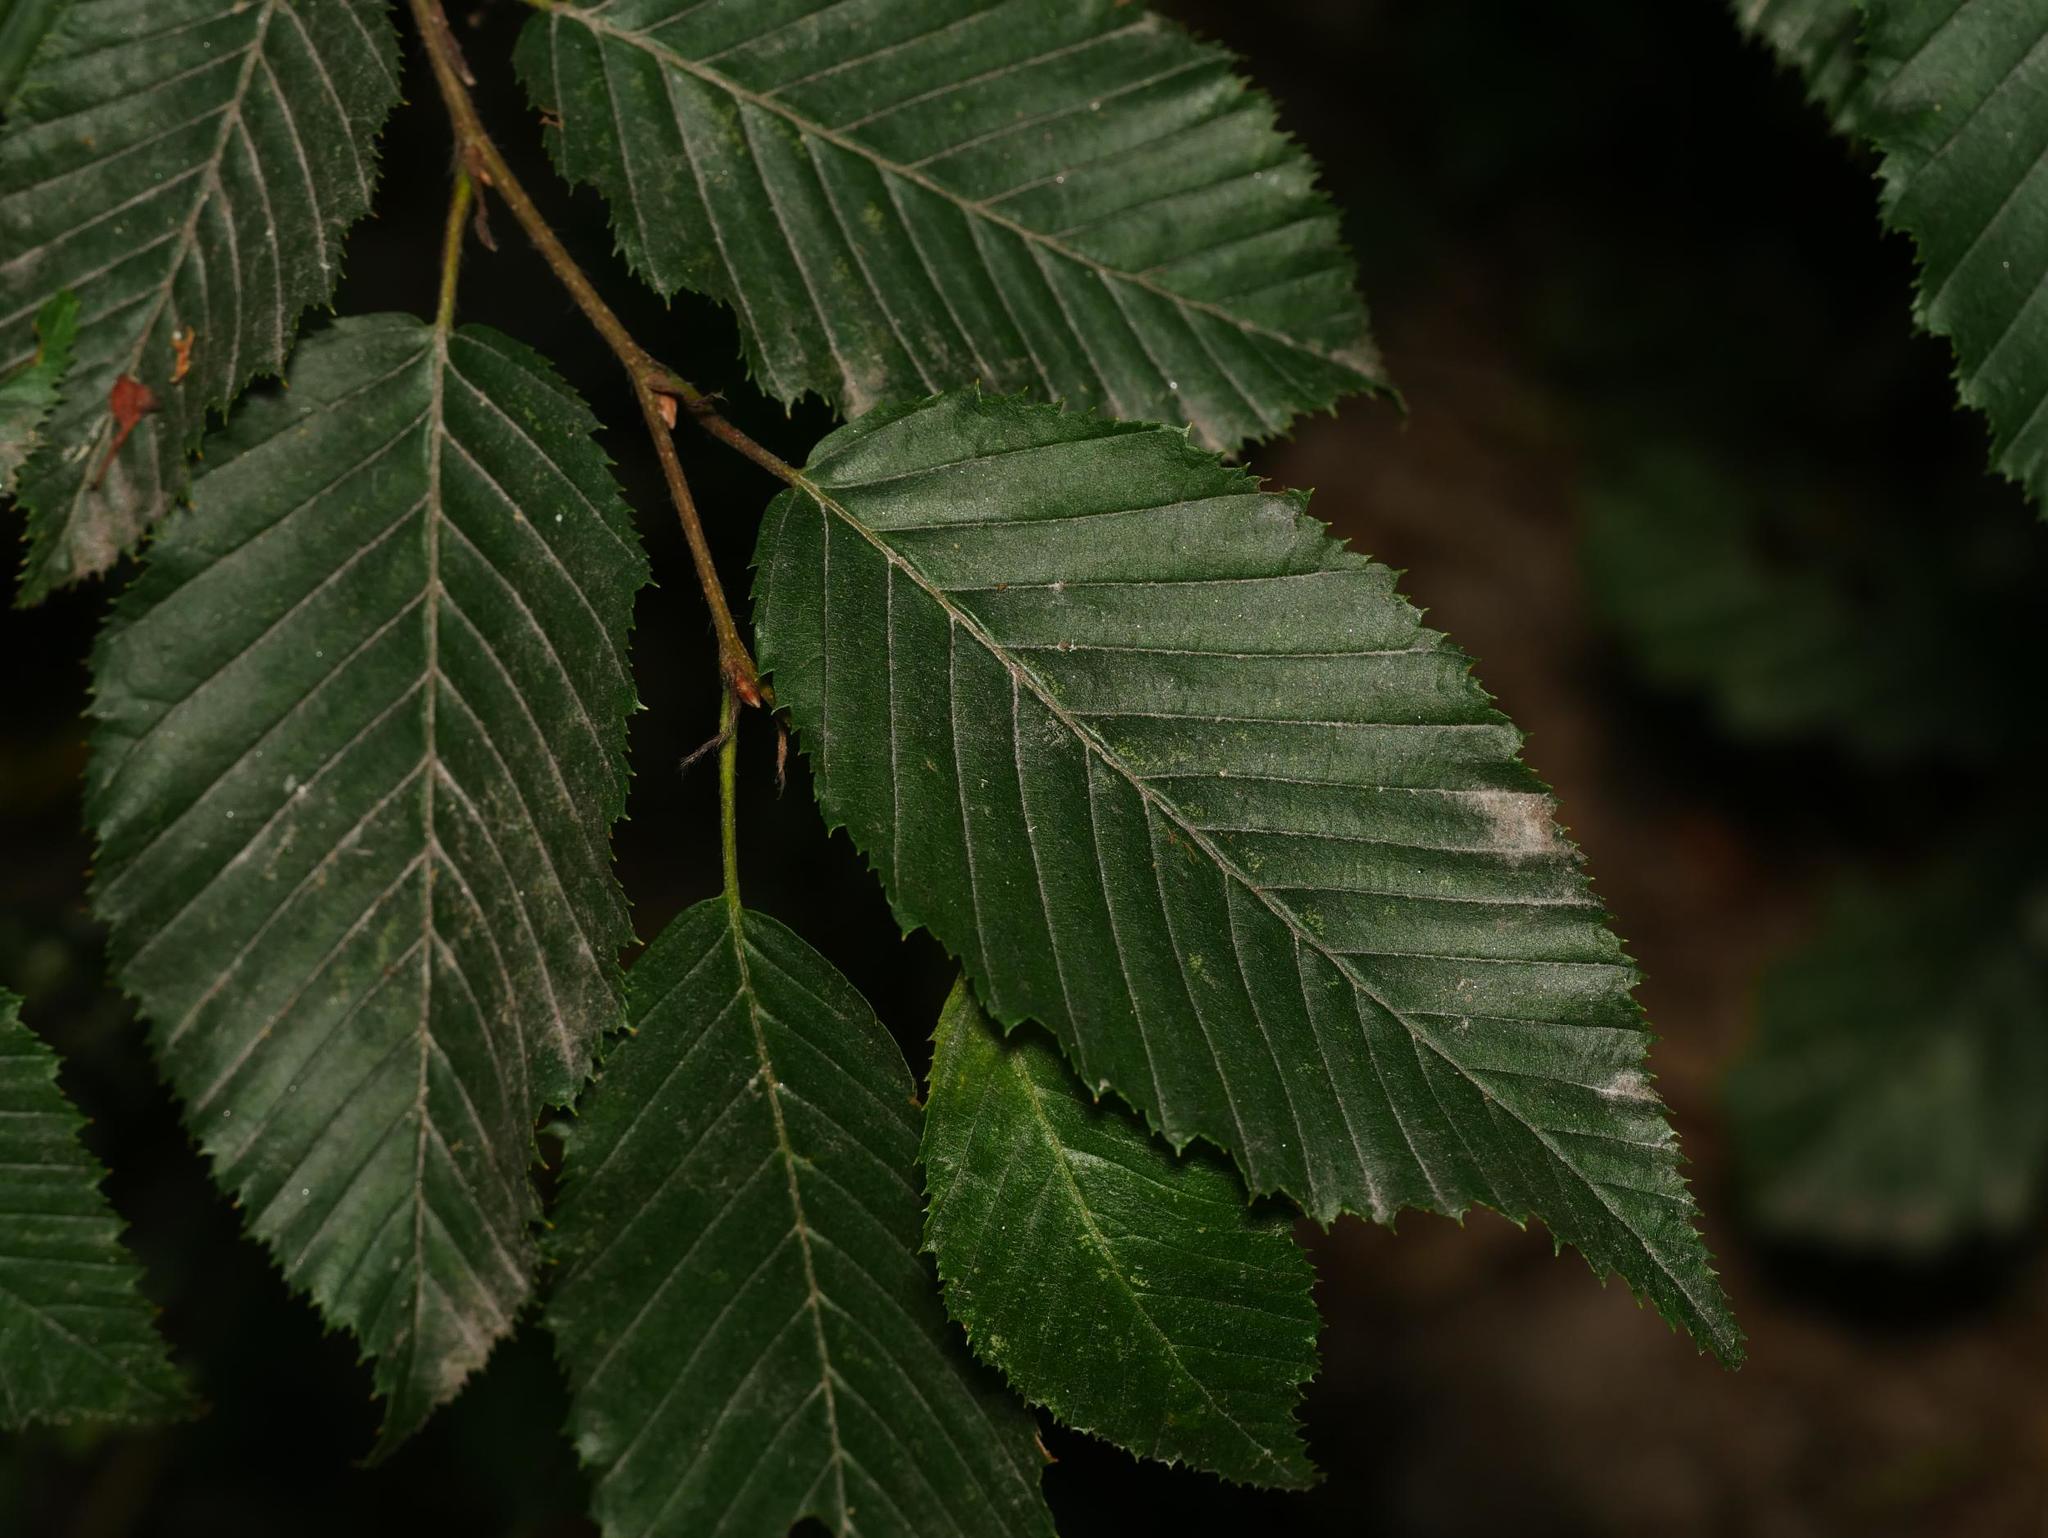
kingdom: Plantae
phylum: Tracheophyta
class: Magnoliopsida
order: Fagales
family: Betulaceae
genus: Carpinus
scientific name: Carpinus betulus
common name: Hornbeam
